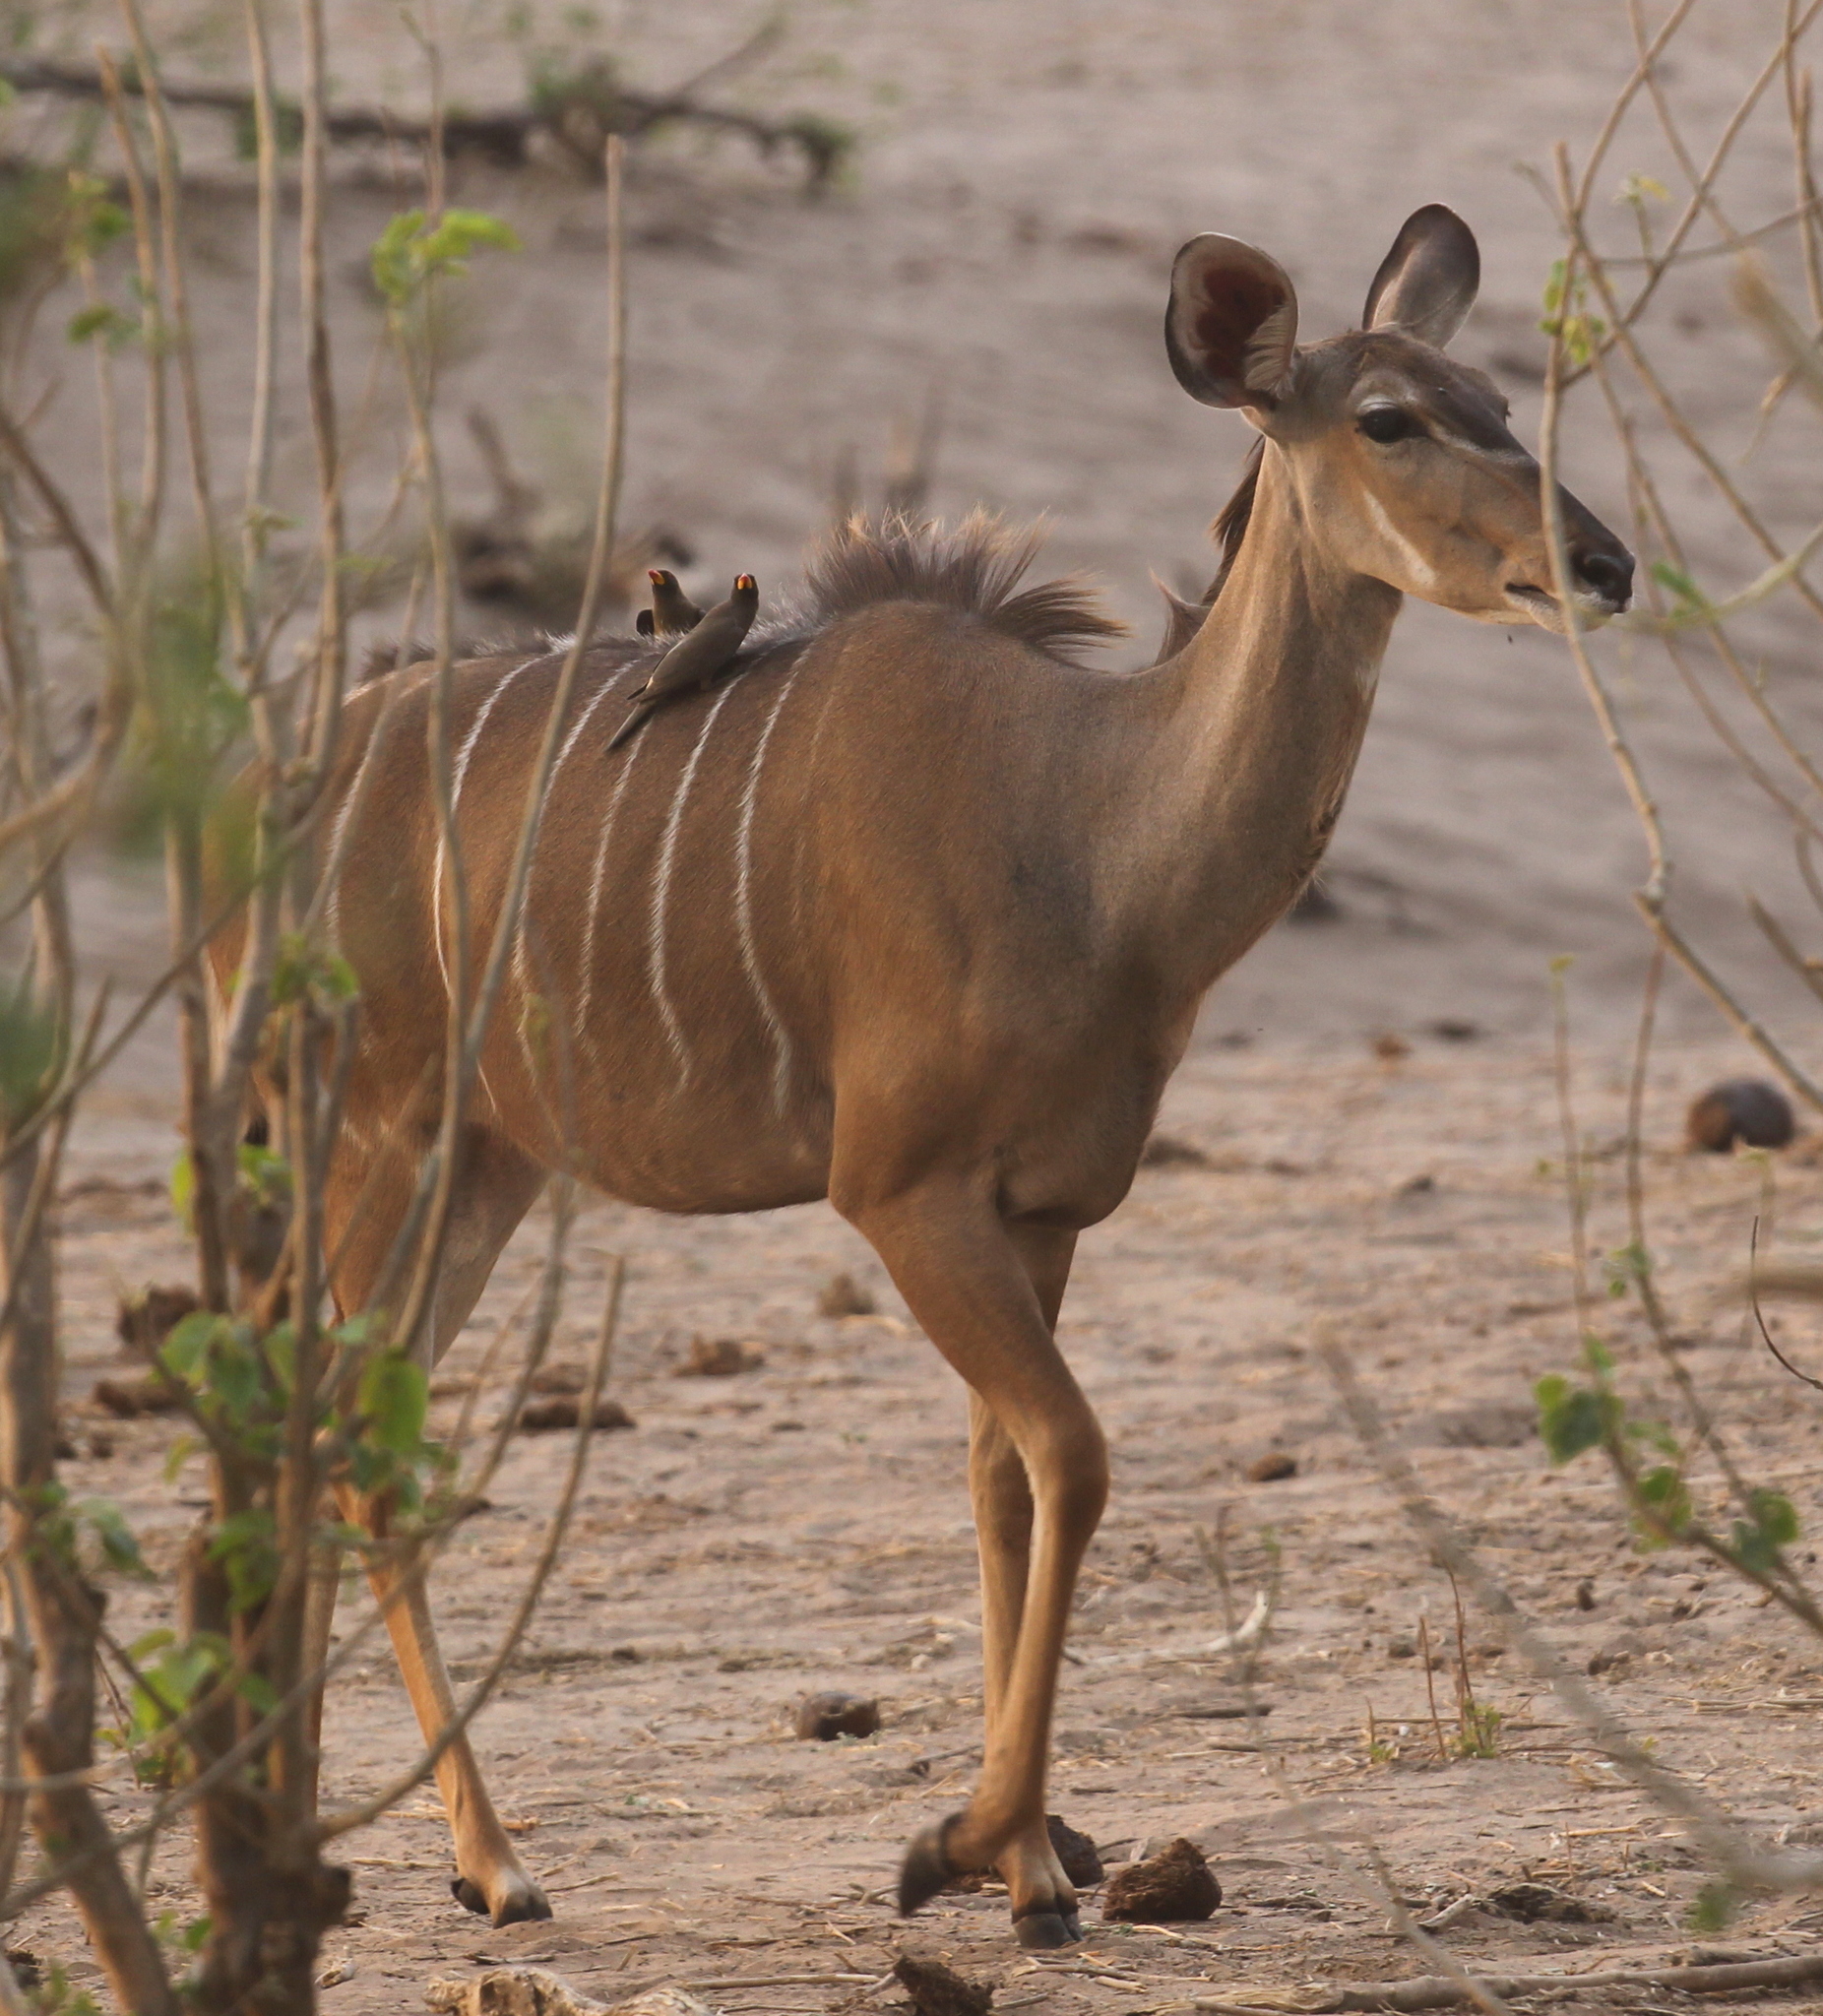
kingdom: Animalia
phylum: Chordata
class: Mammalia
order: Artiodactyla
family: Bovidae
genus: Tragelaphus
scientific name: Tragelaphus strepsiceros
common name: Greater kudu
